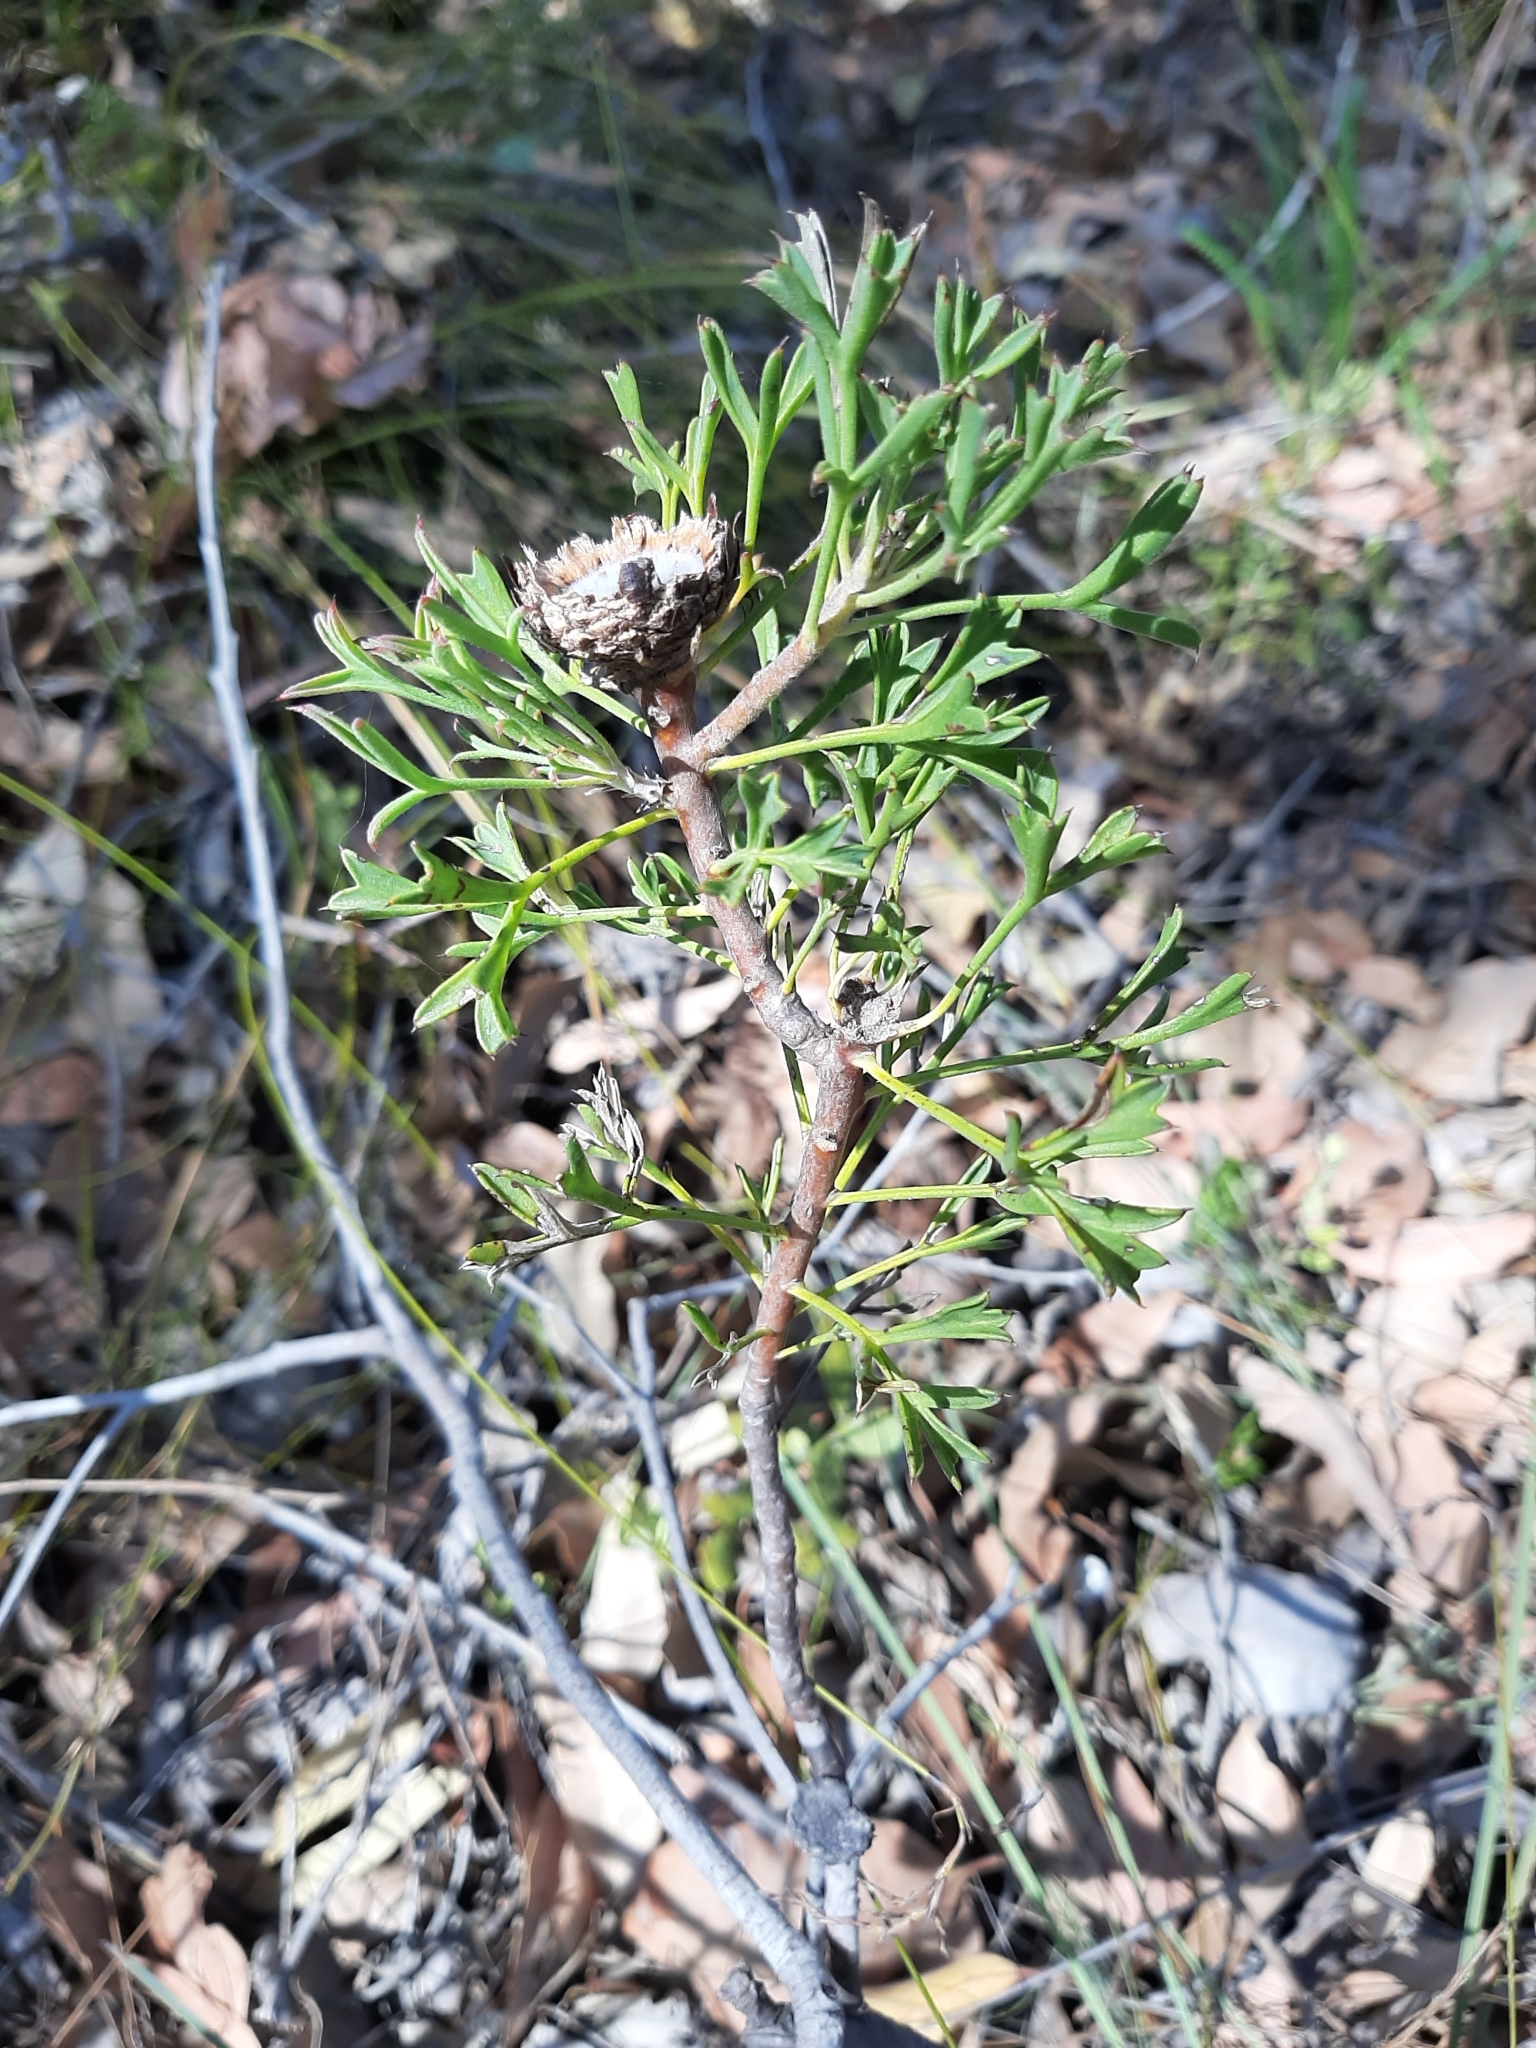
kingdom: Plantae
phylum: Tracheophyta
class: Magnoliopsida
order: Proteales
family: Proteaceae
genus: Isopogon
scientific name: Isopogon dubius
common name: Pincushion-coneflower
